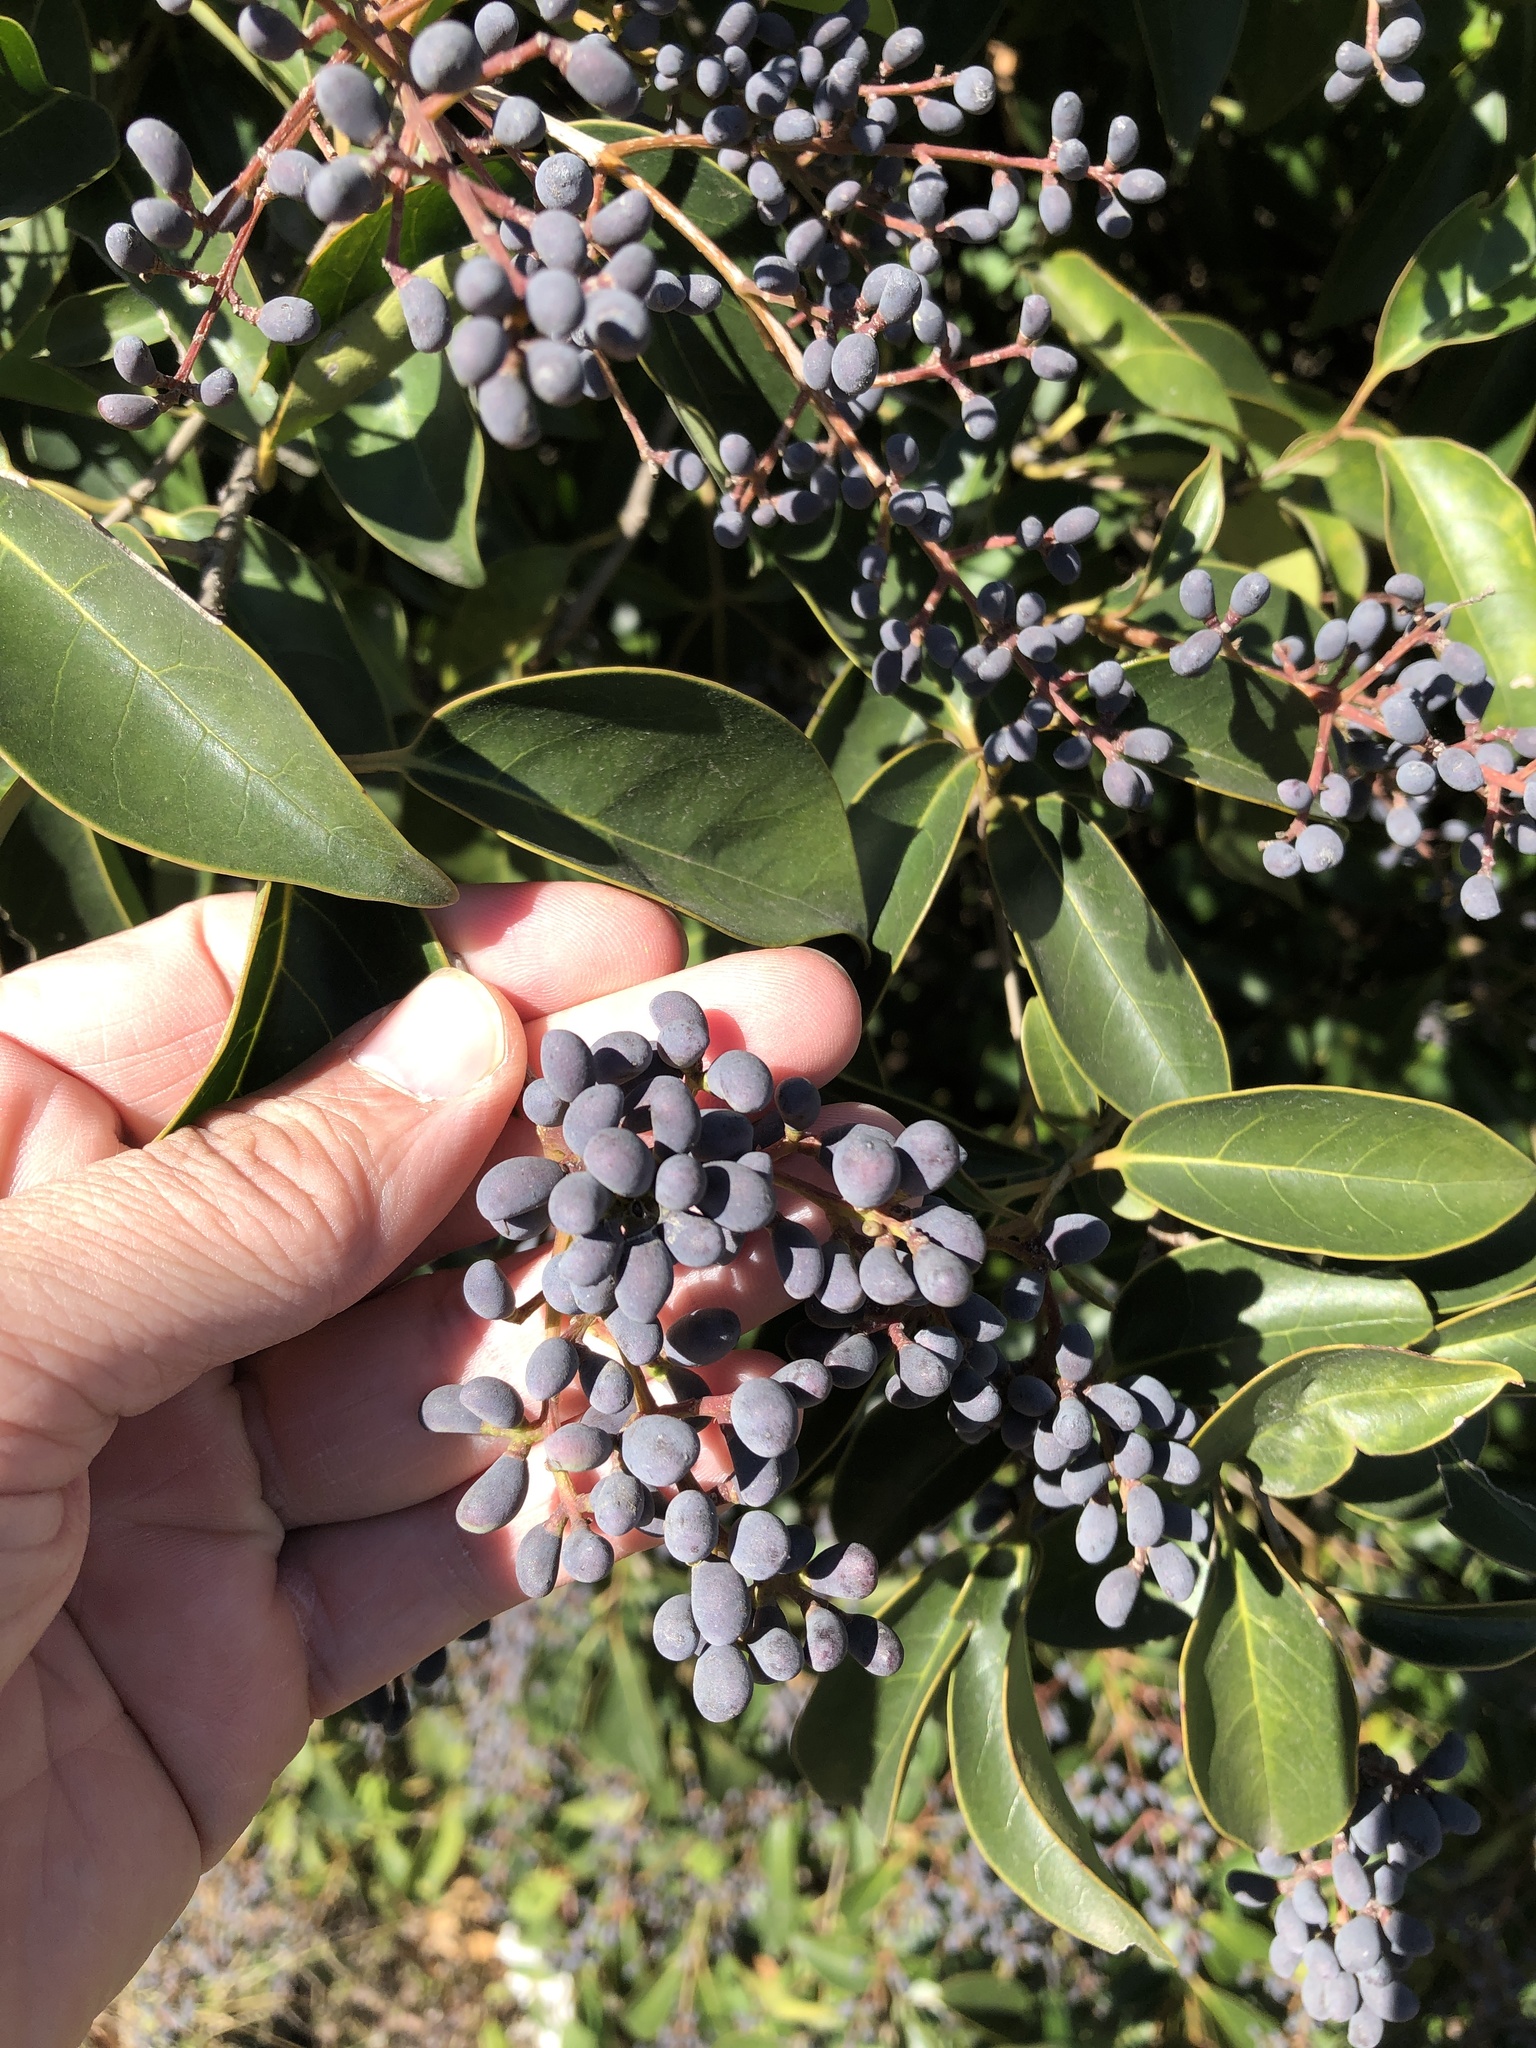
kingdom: Plantae
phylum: Tracheophyta
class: Magnoliopsida
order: Lamiales
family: Oleaceae
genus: Ligustrum
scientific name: Ligustrum lucidum
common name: Glossy privet
